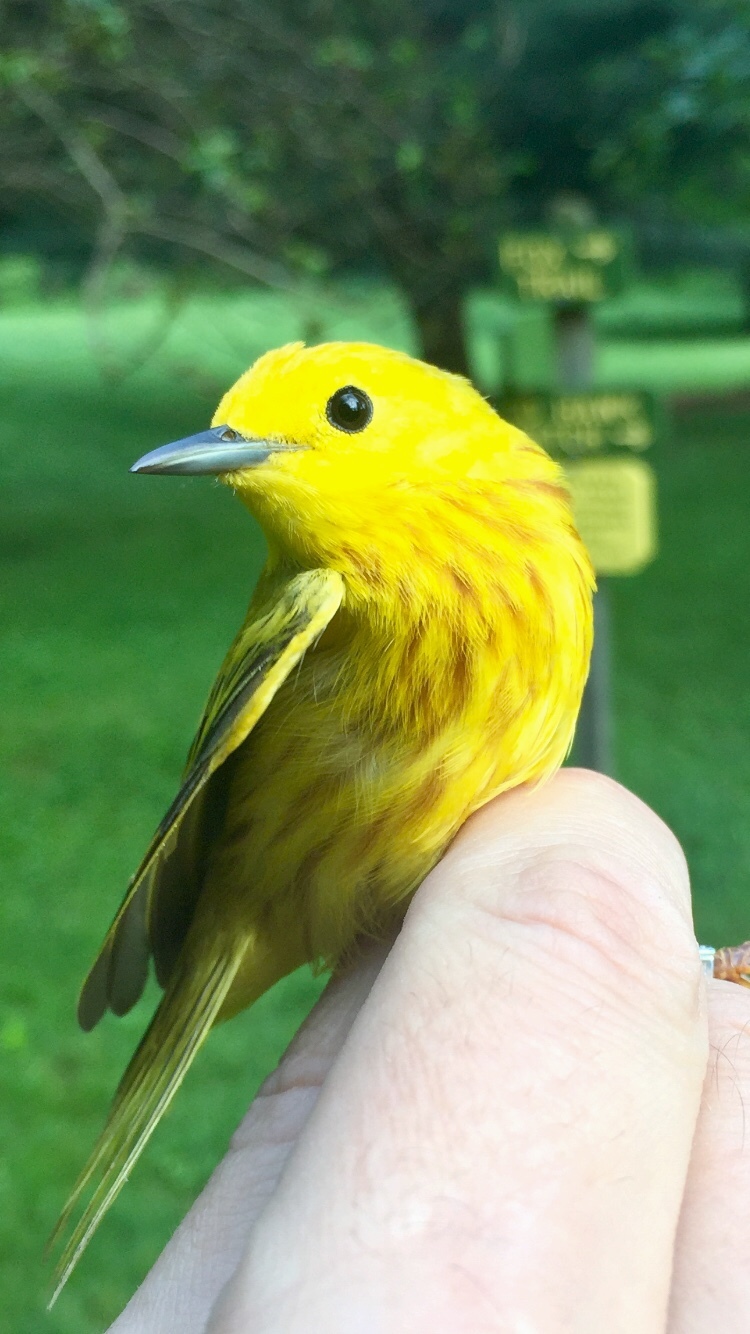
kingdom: Animalia
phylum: Chordata
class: Aves
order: Passeriformes
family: Parulidae
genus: Setophaga
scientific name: Setophaga petechia
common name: Yellow warbler
